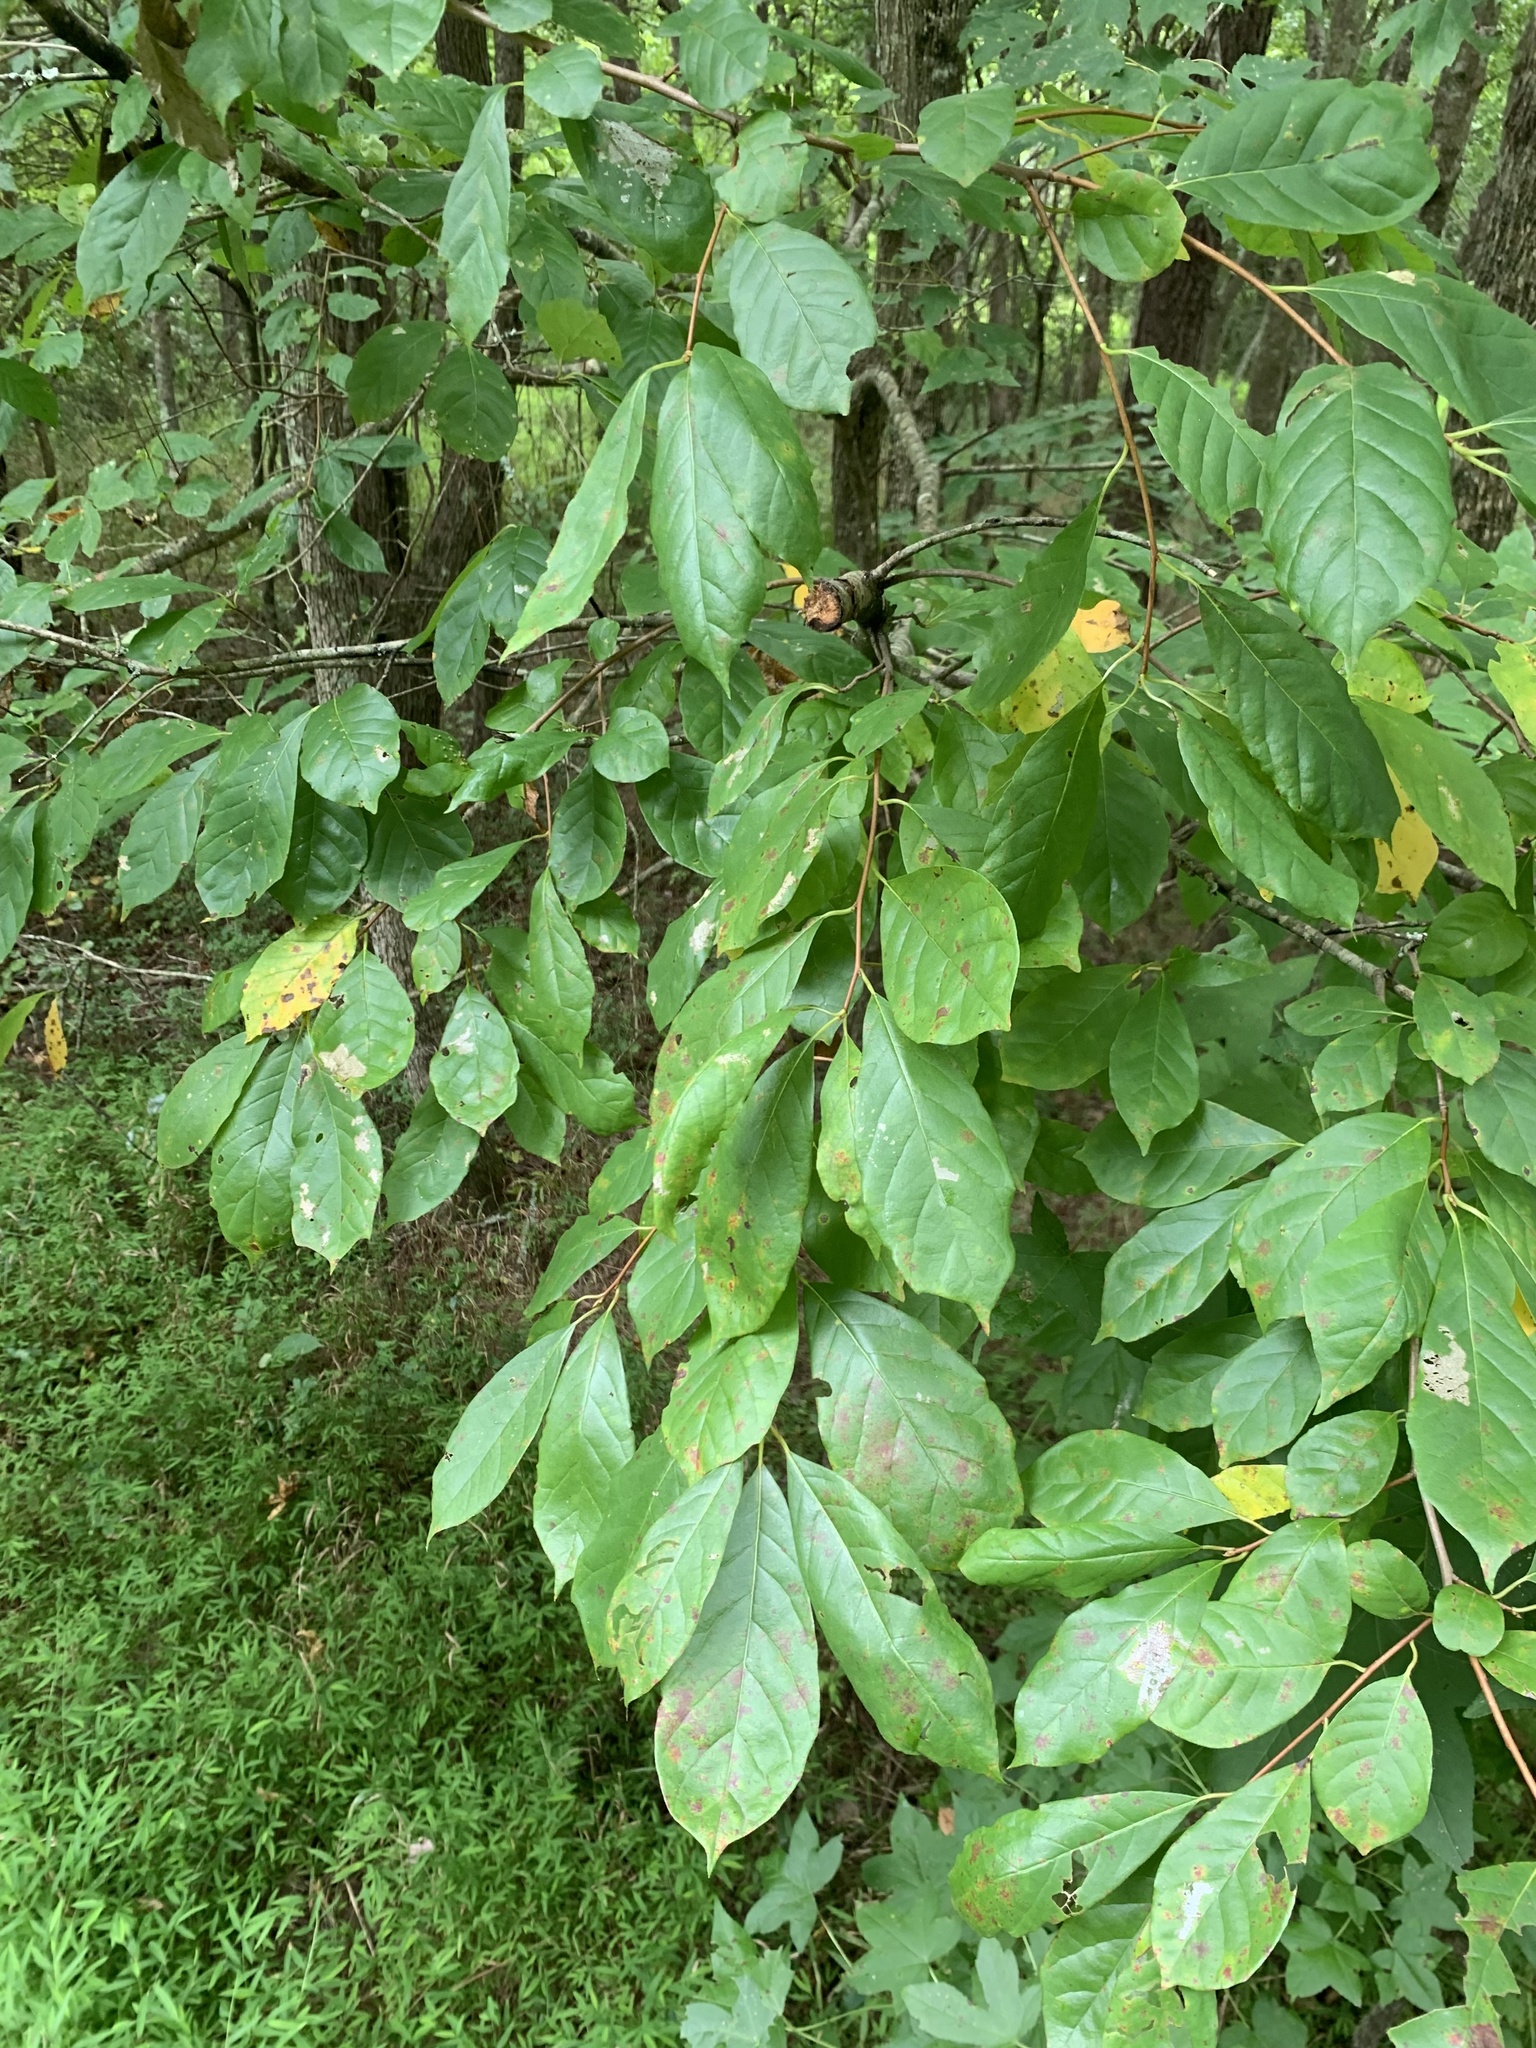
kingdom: Plantae
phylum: Tracheophyta
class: Magnoliopsida
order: Cornales
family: Nyssaceae
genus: Nyssa
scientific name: Nyssa sylvatica
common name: Black tupelo
